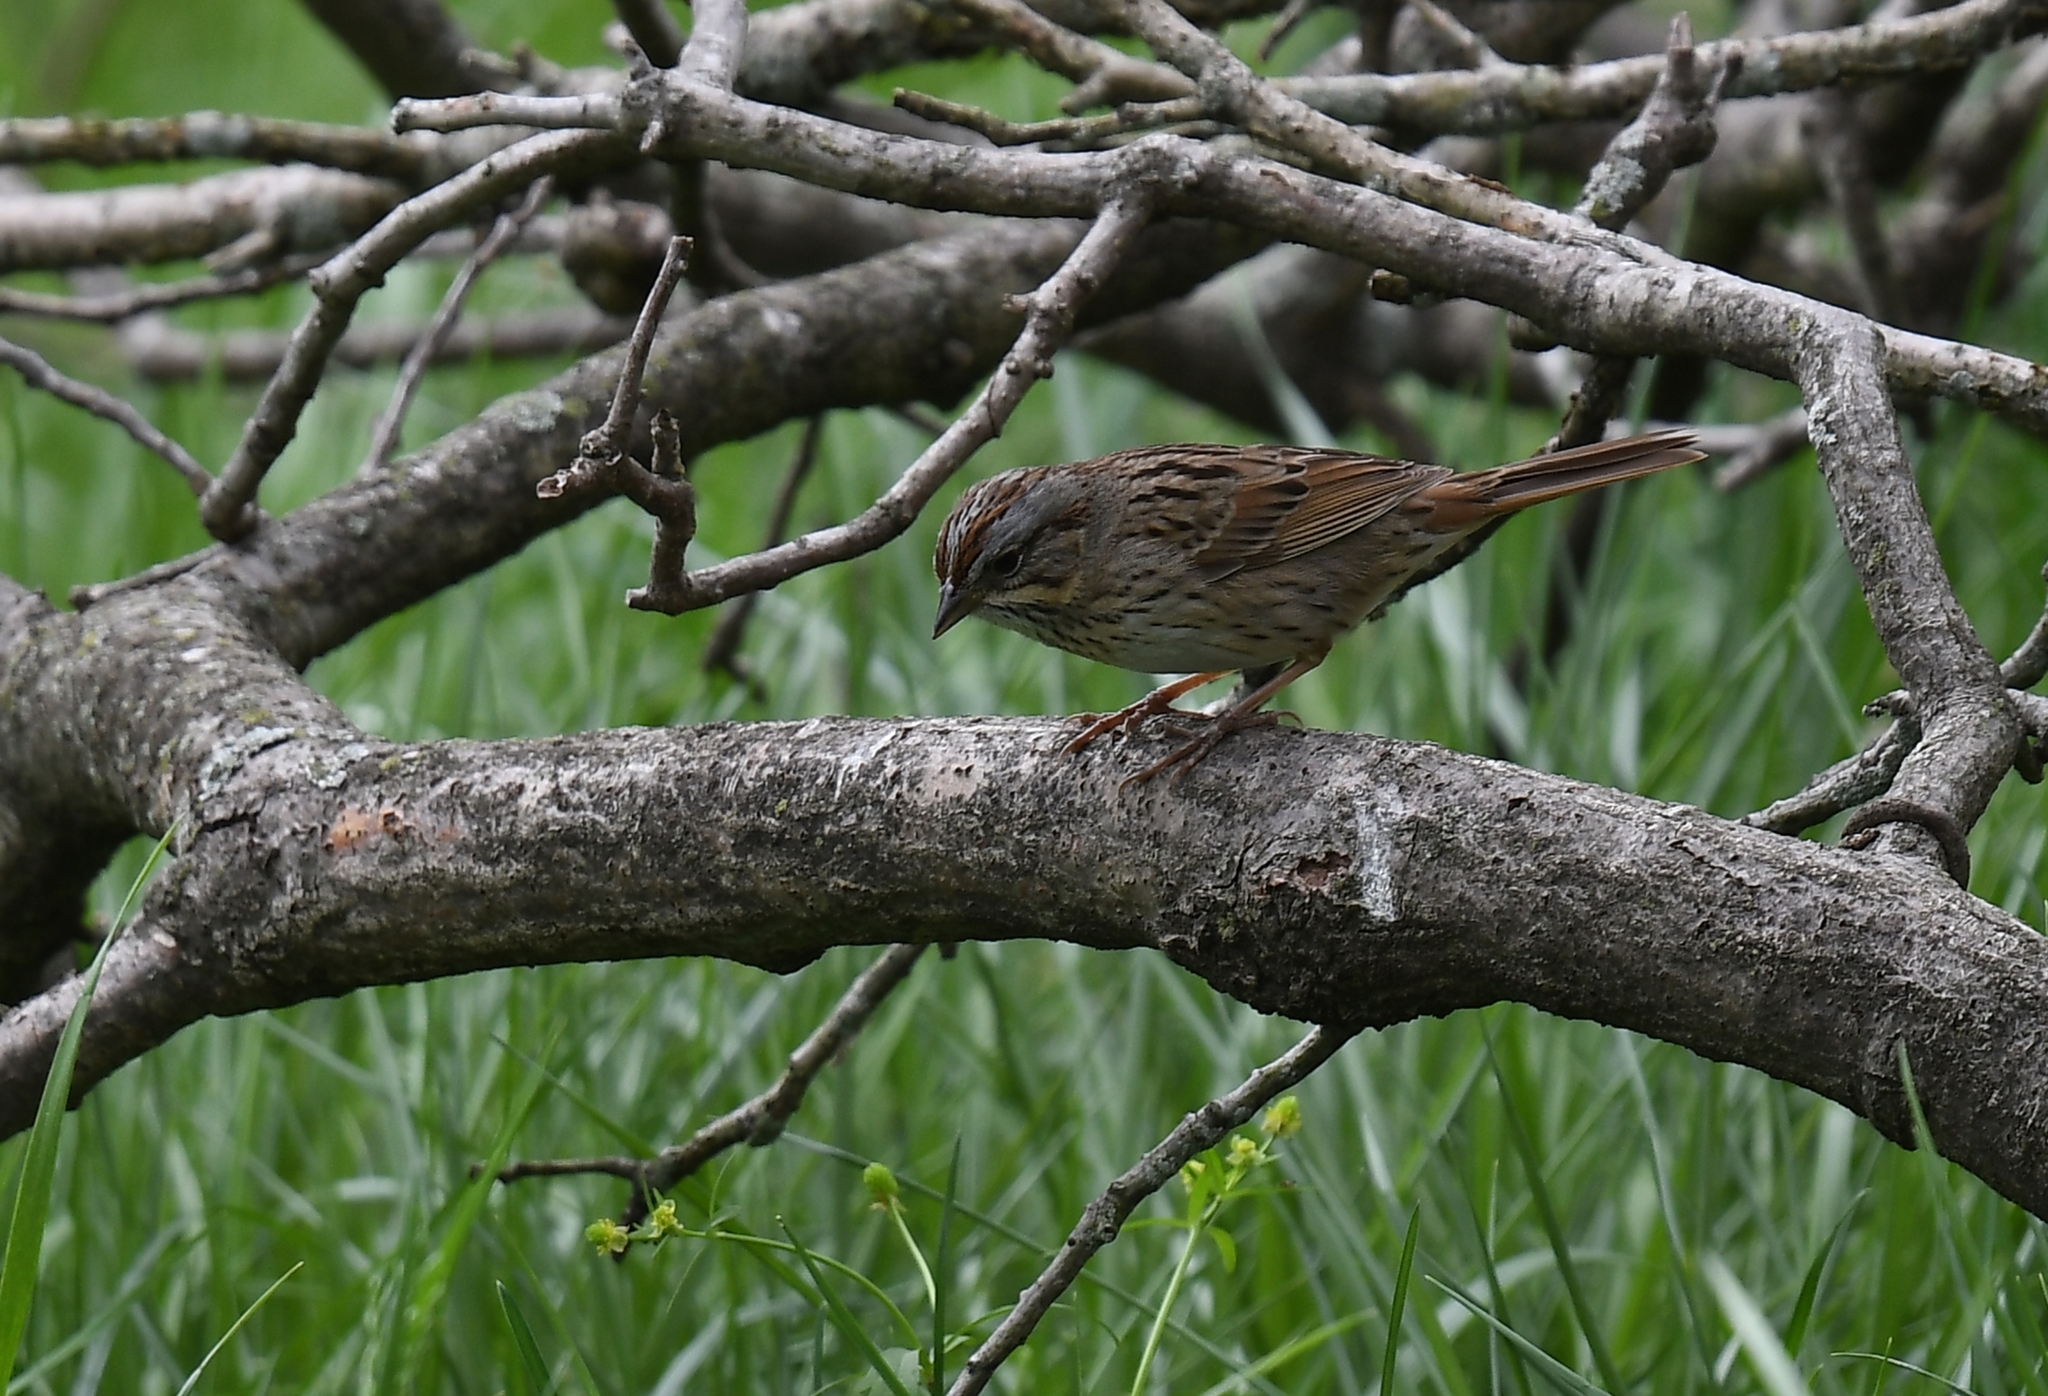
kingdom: Animalia
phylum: Chordata
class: Aves
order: Passeriformes
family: Passerellidae
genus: Melospiza
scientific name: Melospiza lincolnii
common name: Lincoln's sparrow
